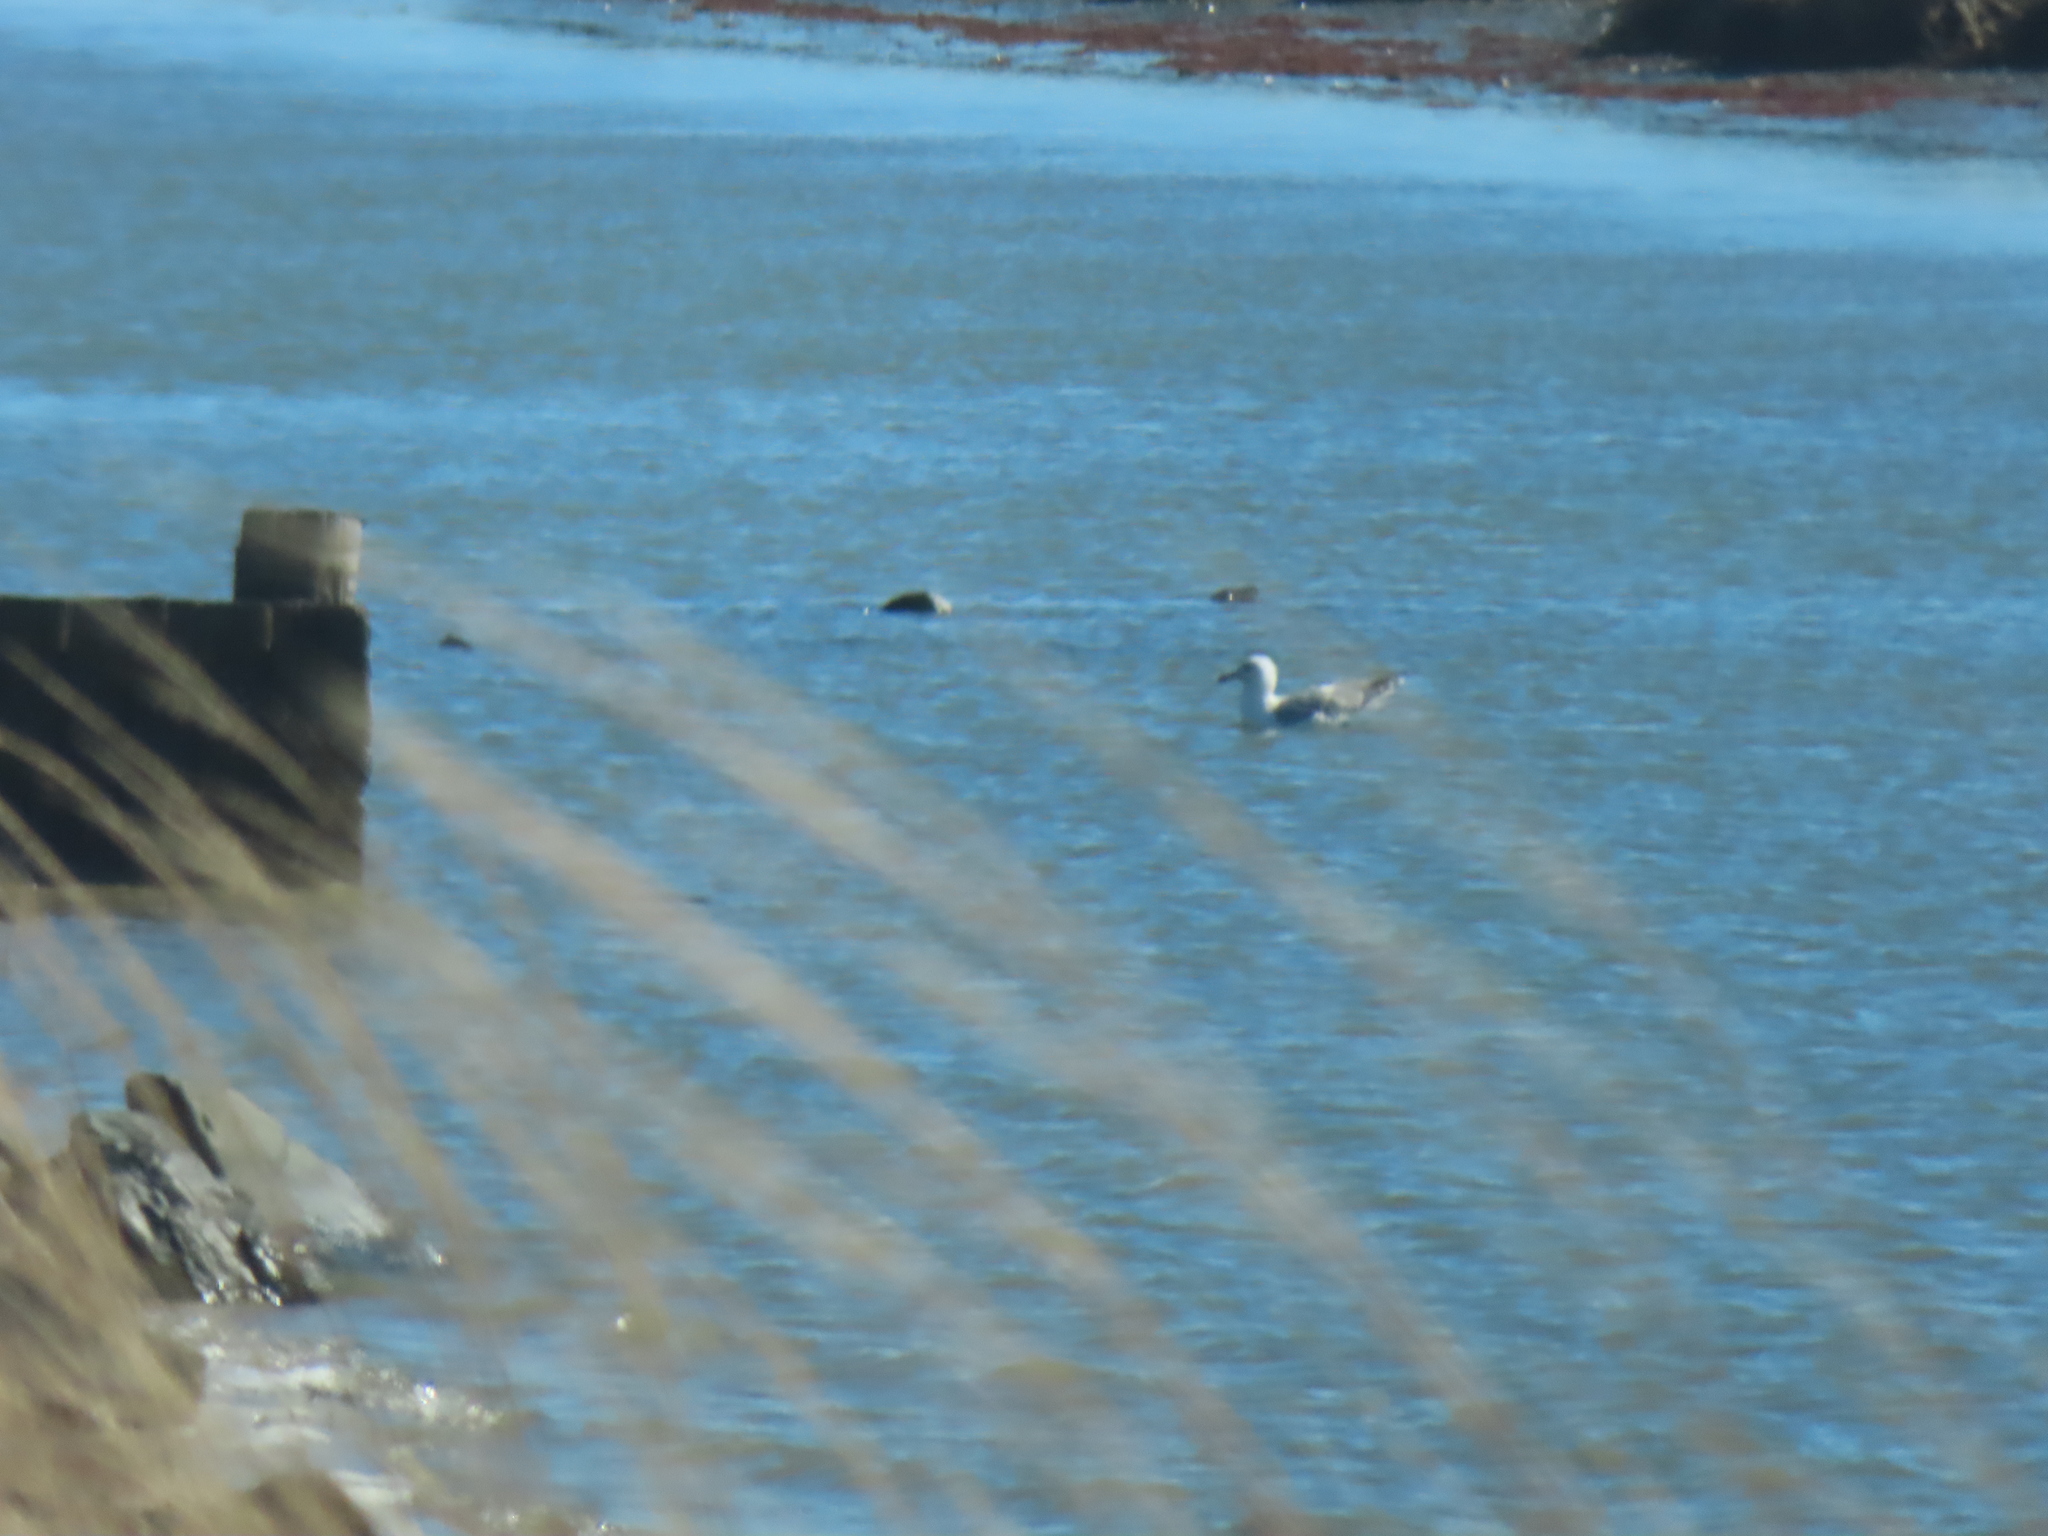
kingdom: Animalia
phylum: Chordata
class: Aves
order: Charadriiformes
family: Laridae
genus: Larus
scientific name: Larus delawarensis
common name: Ring-billed gull
